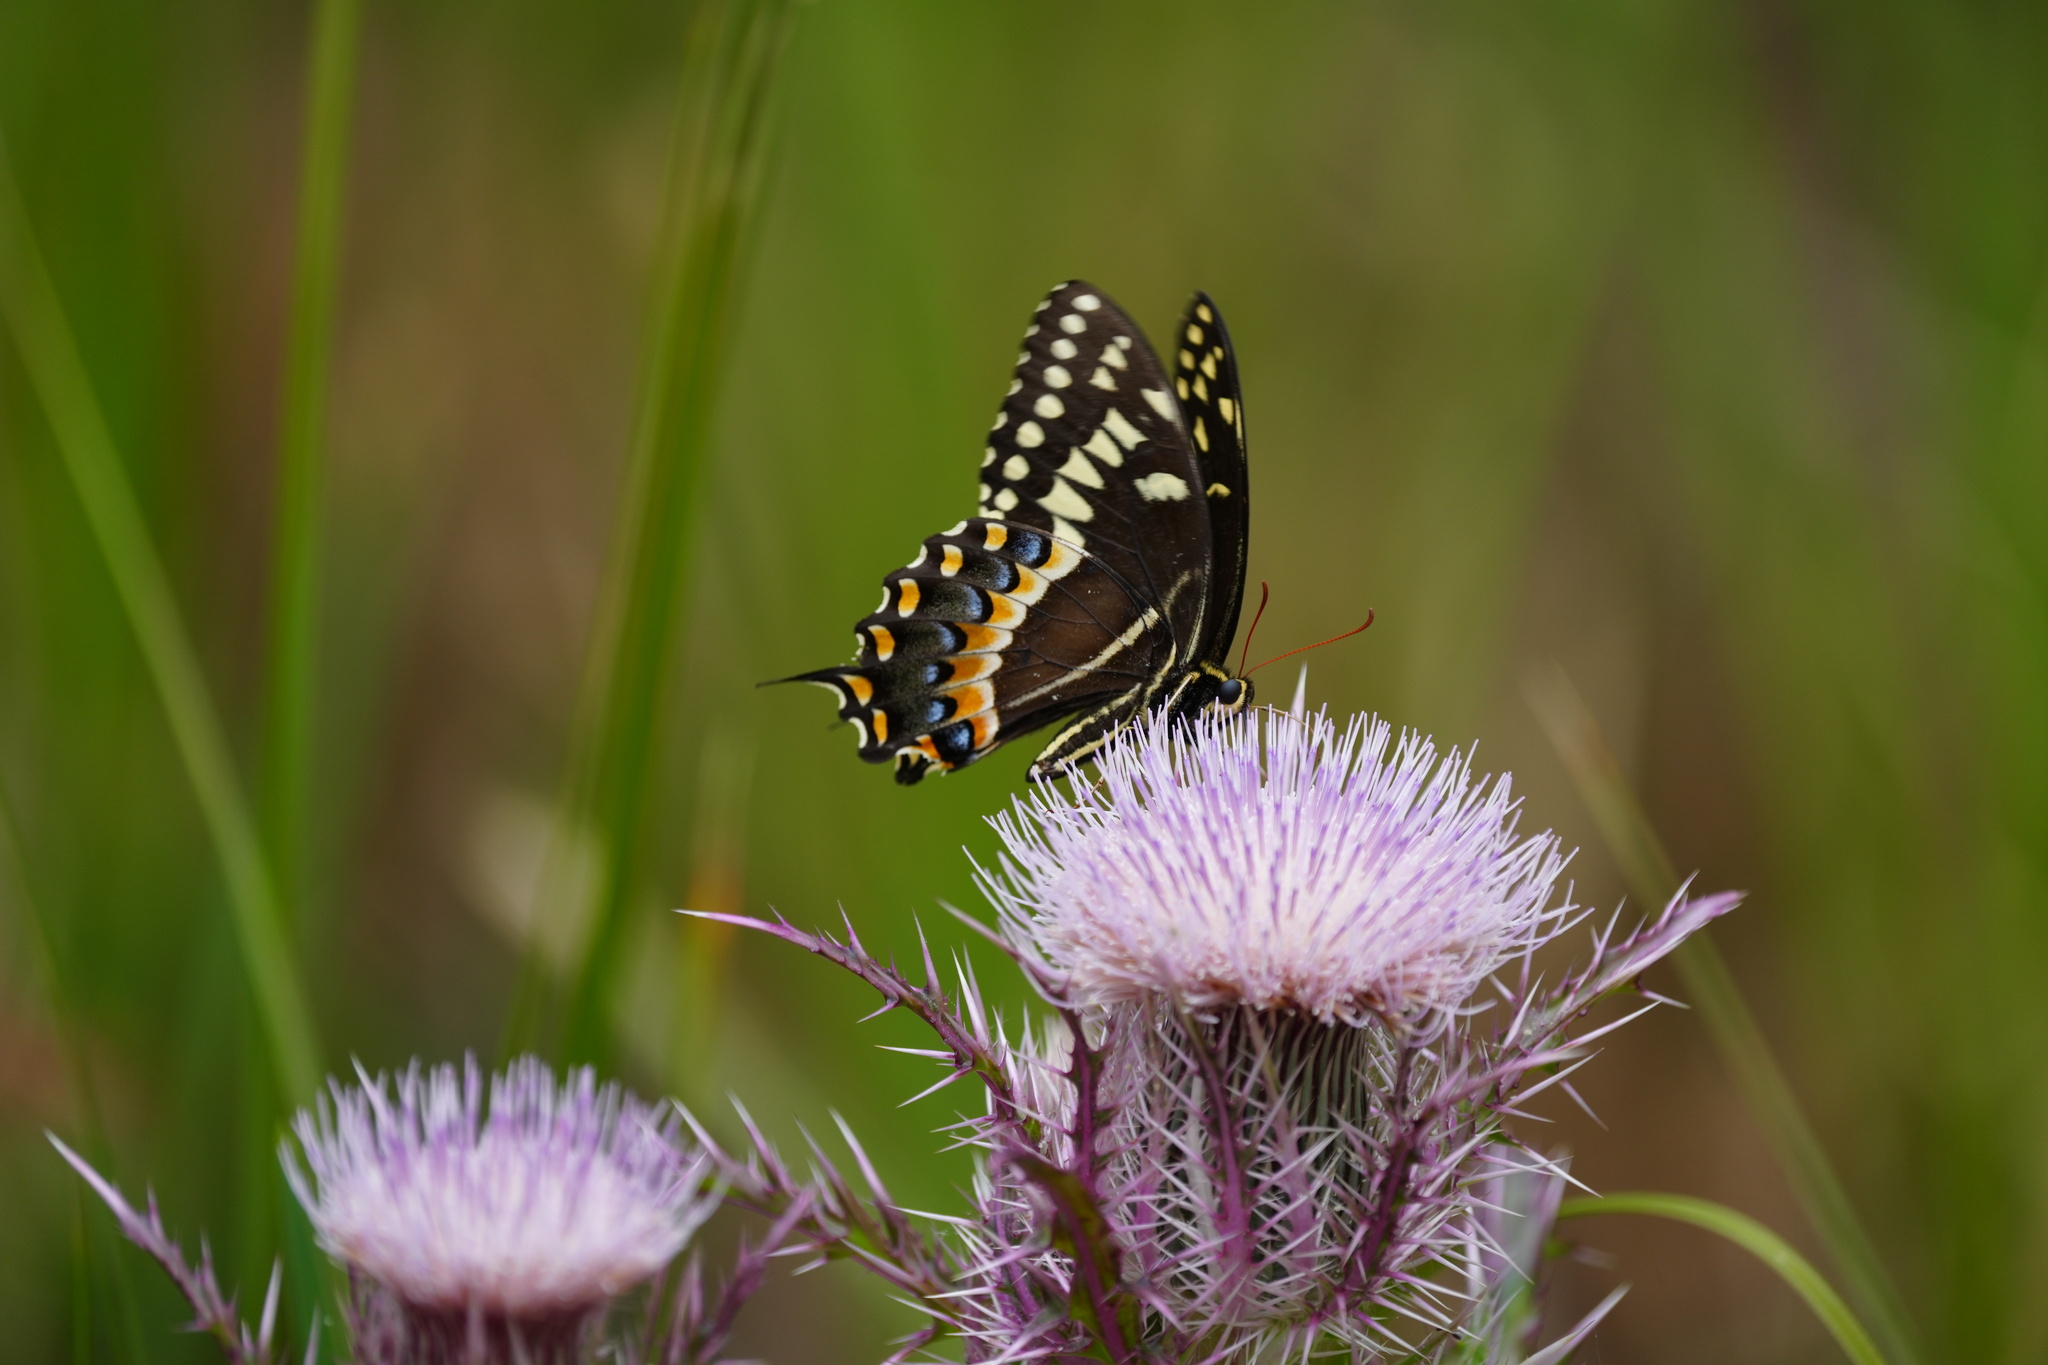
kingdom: Animalia
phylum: Arthropoda
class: Insecta
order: Lepidoptera
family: Papilionidae
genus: Papilio
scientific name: Papilio palamedes
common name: Palamedes swallowtail
